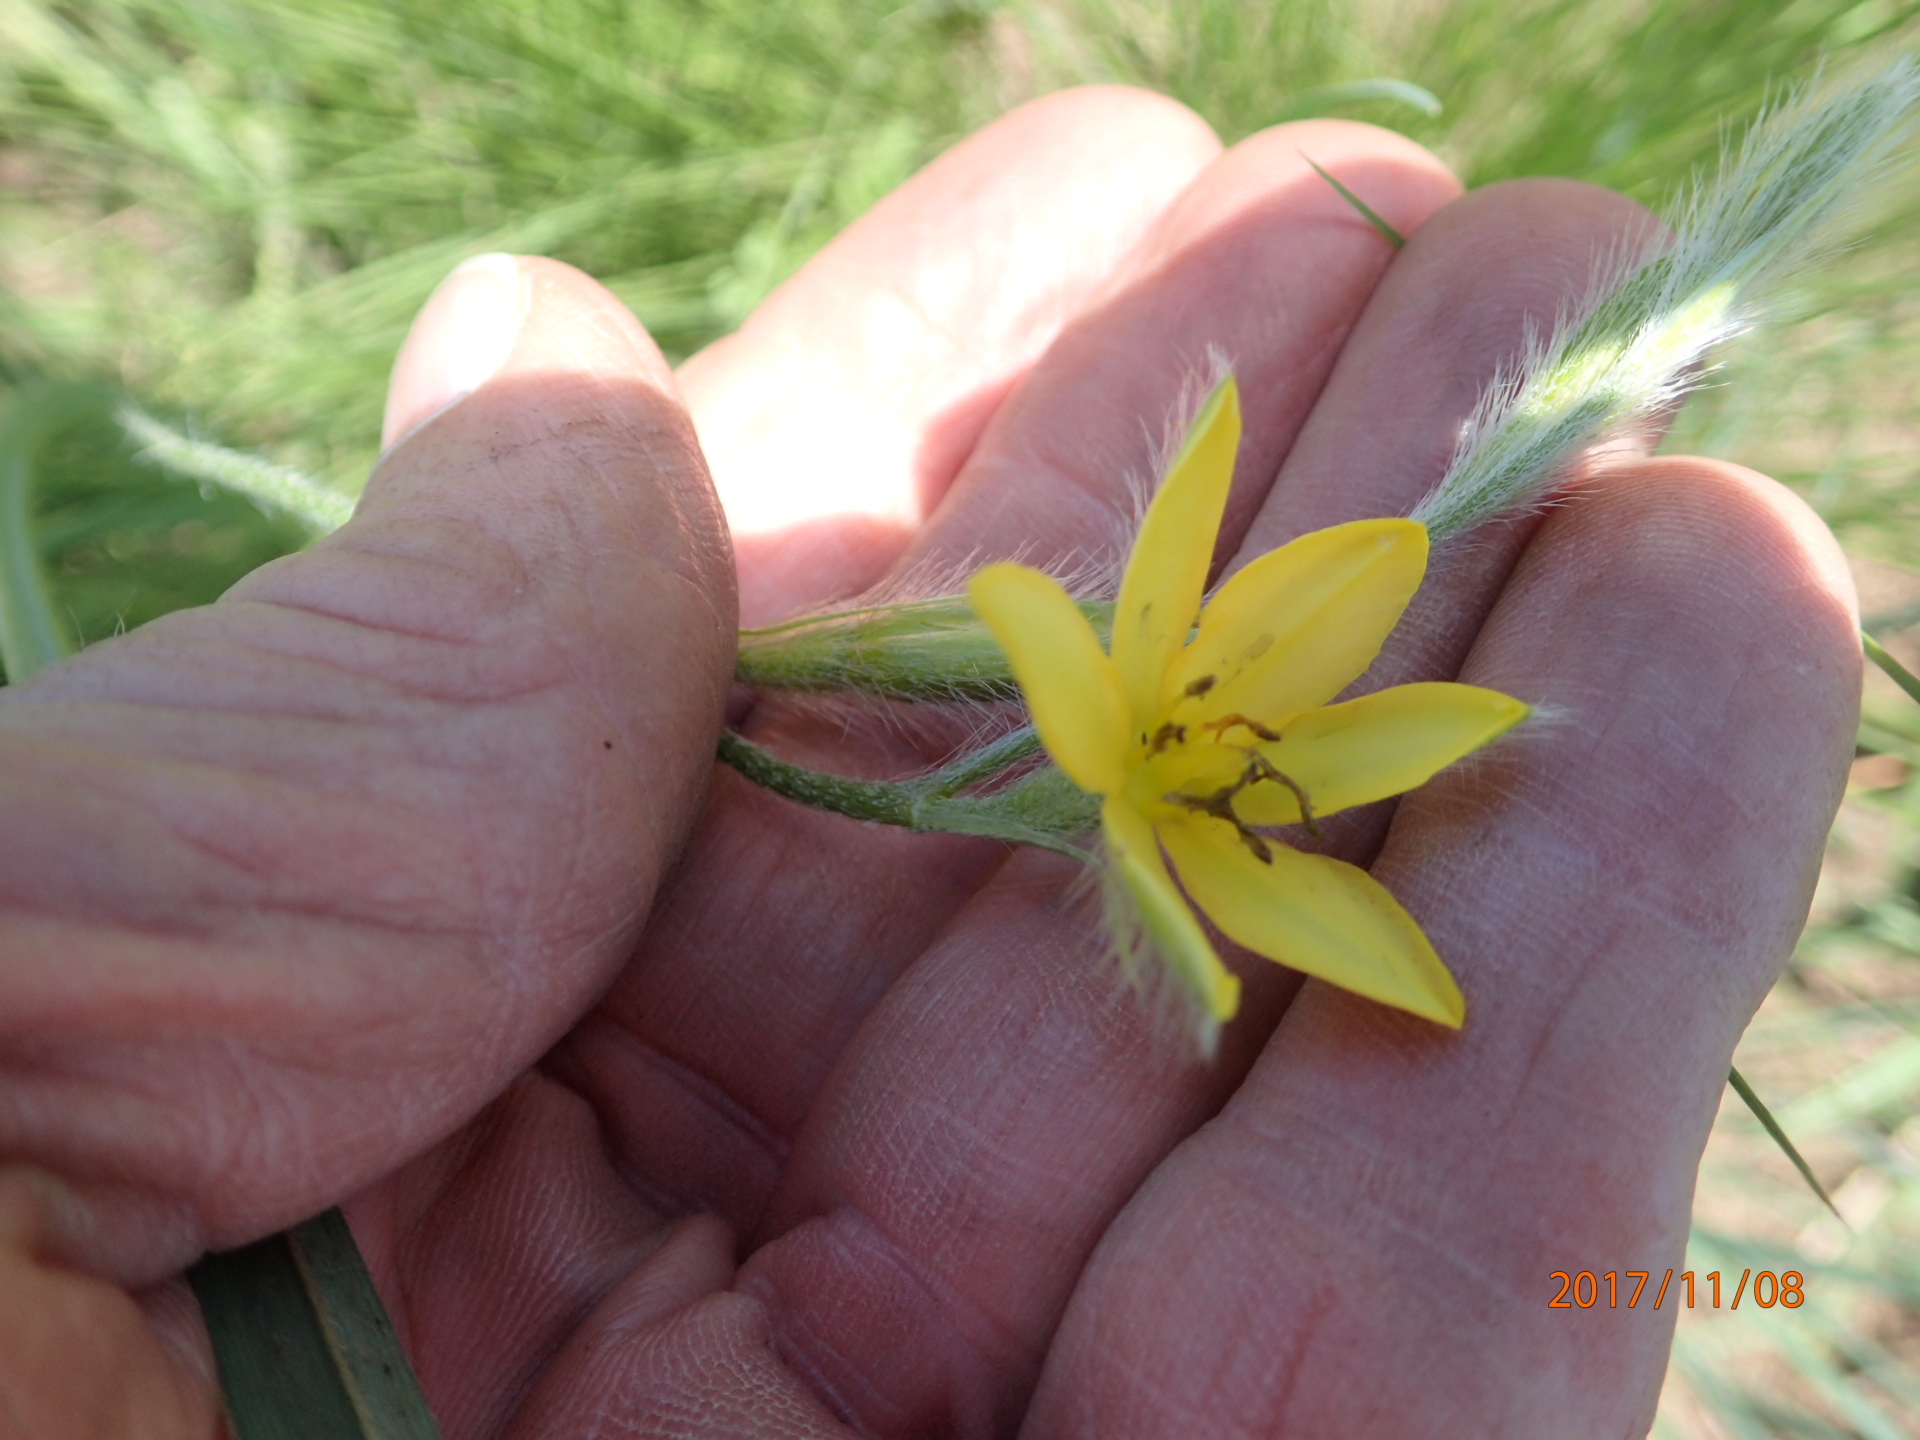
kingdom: Plantae
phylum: Tracheophyta
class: Liliopsida
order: Asparagales
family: Hypoxidaceae
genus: Hypoxis
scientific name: Hypoxis filiformis
